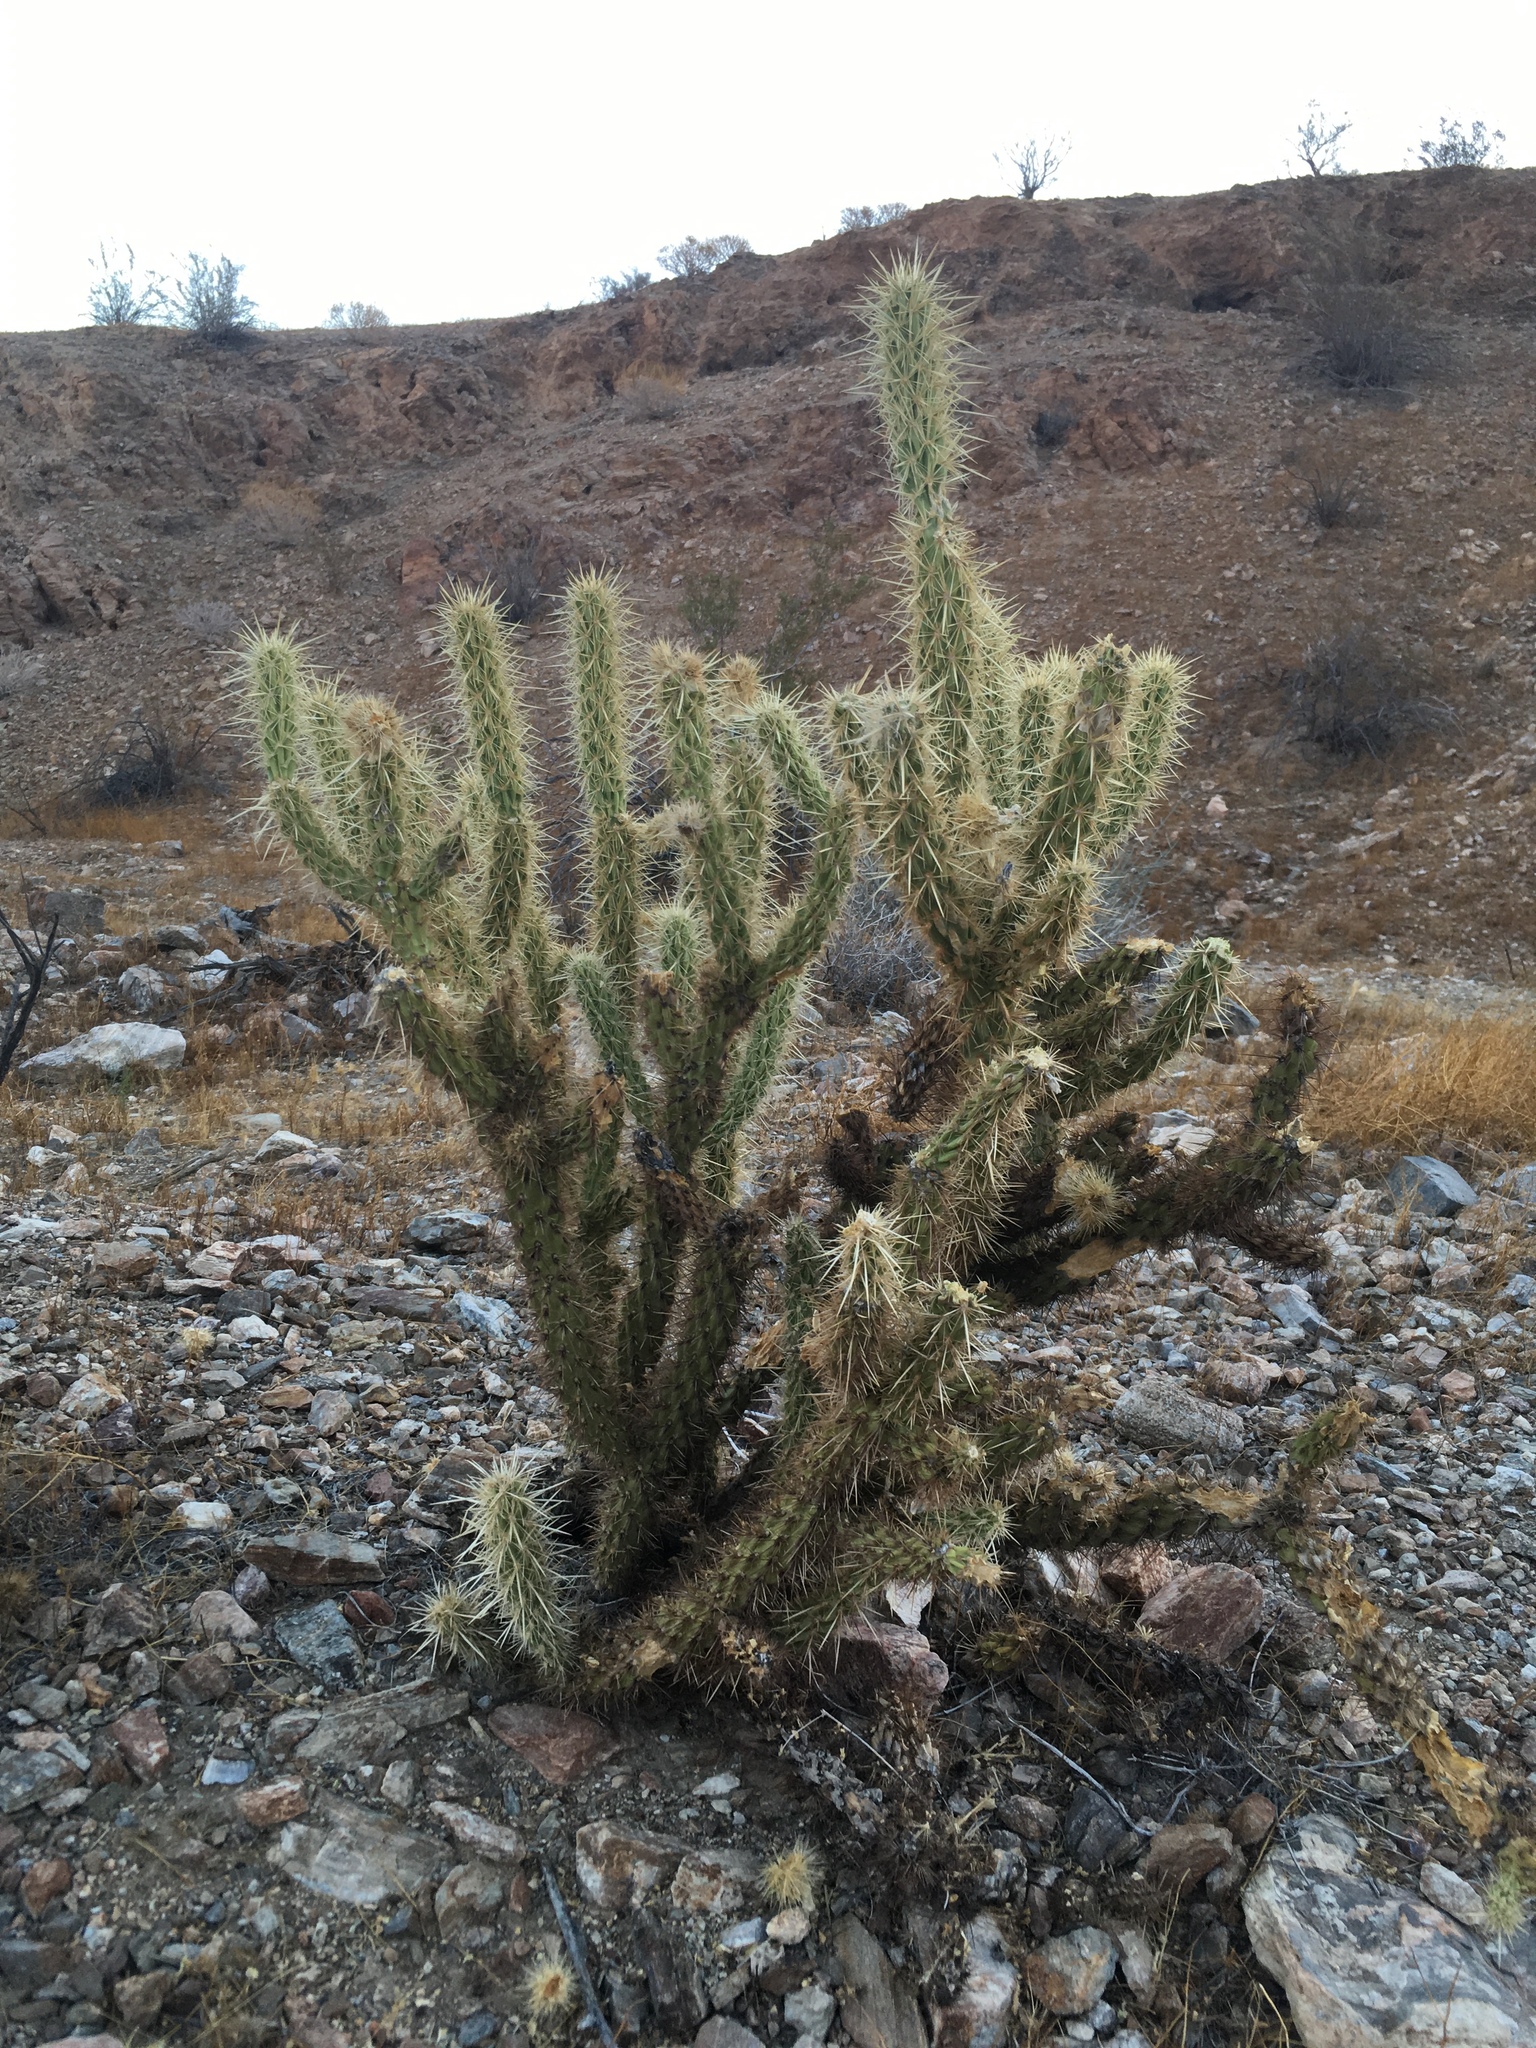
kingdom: Plantae
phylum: Tracheophyta
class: Magnoliopsida
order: Caryophyllales
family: Cactaceae
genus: Cylindropuntia
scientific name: Cylindropuntia ganderi
